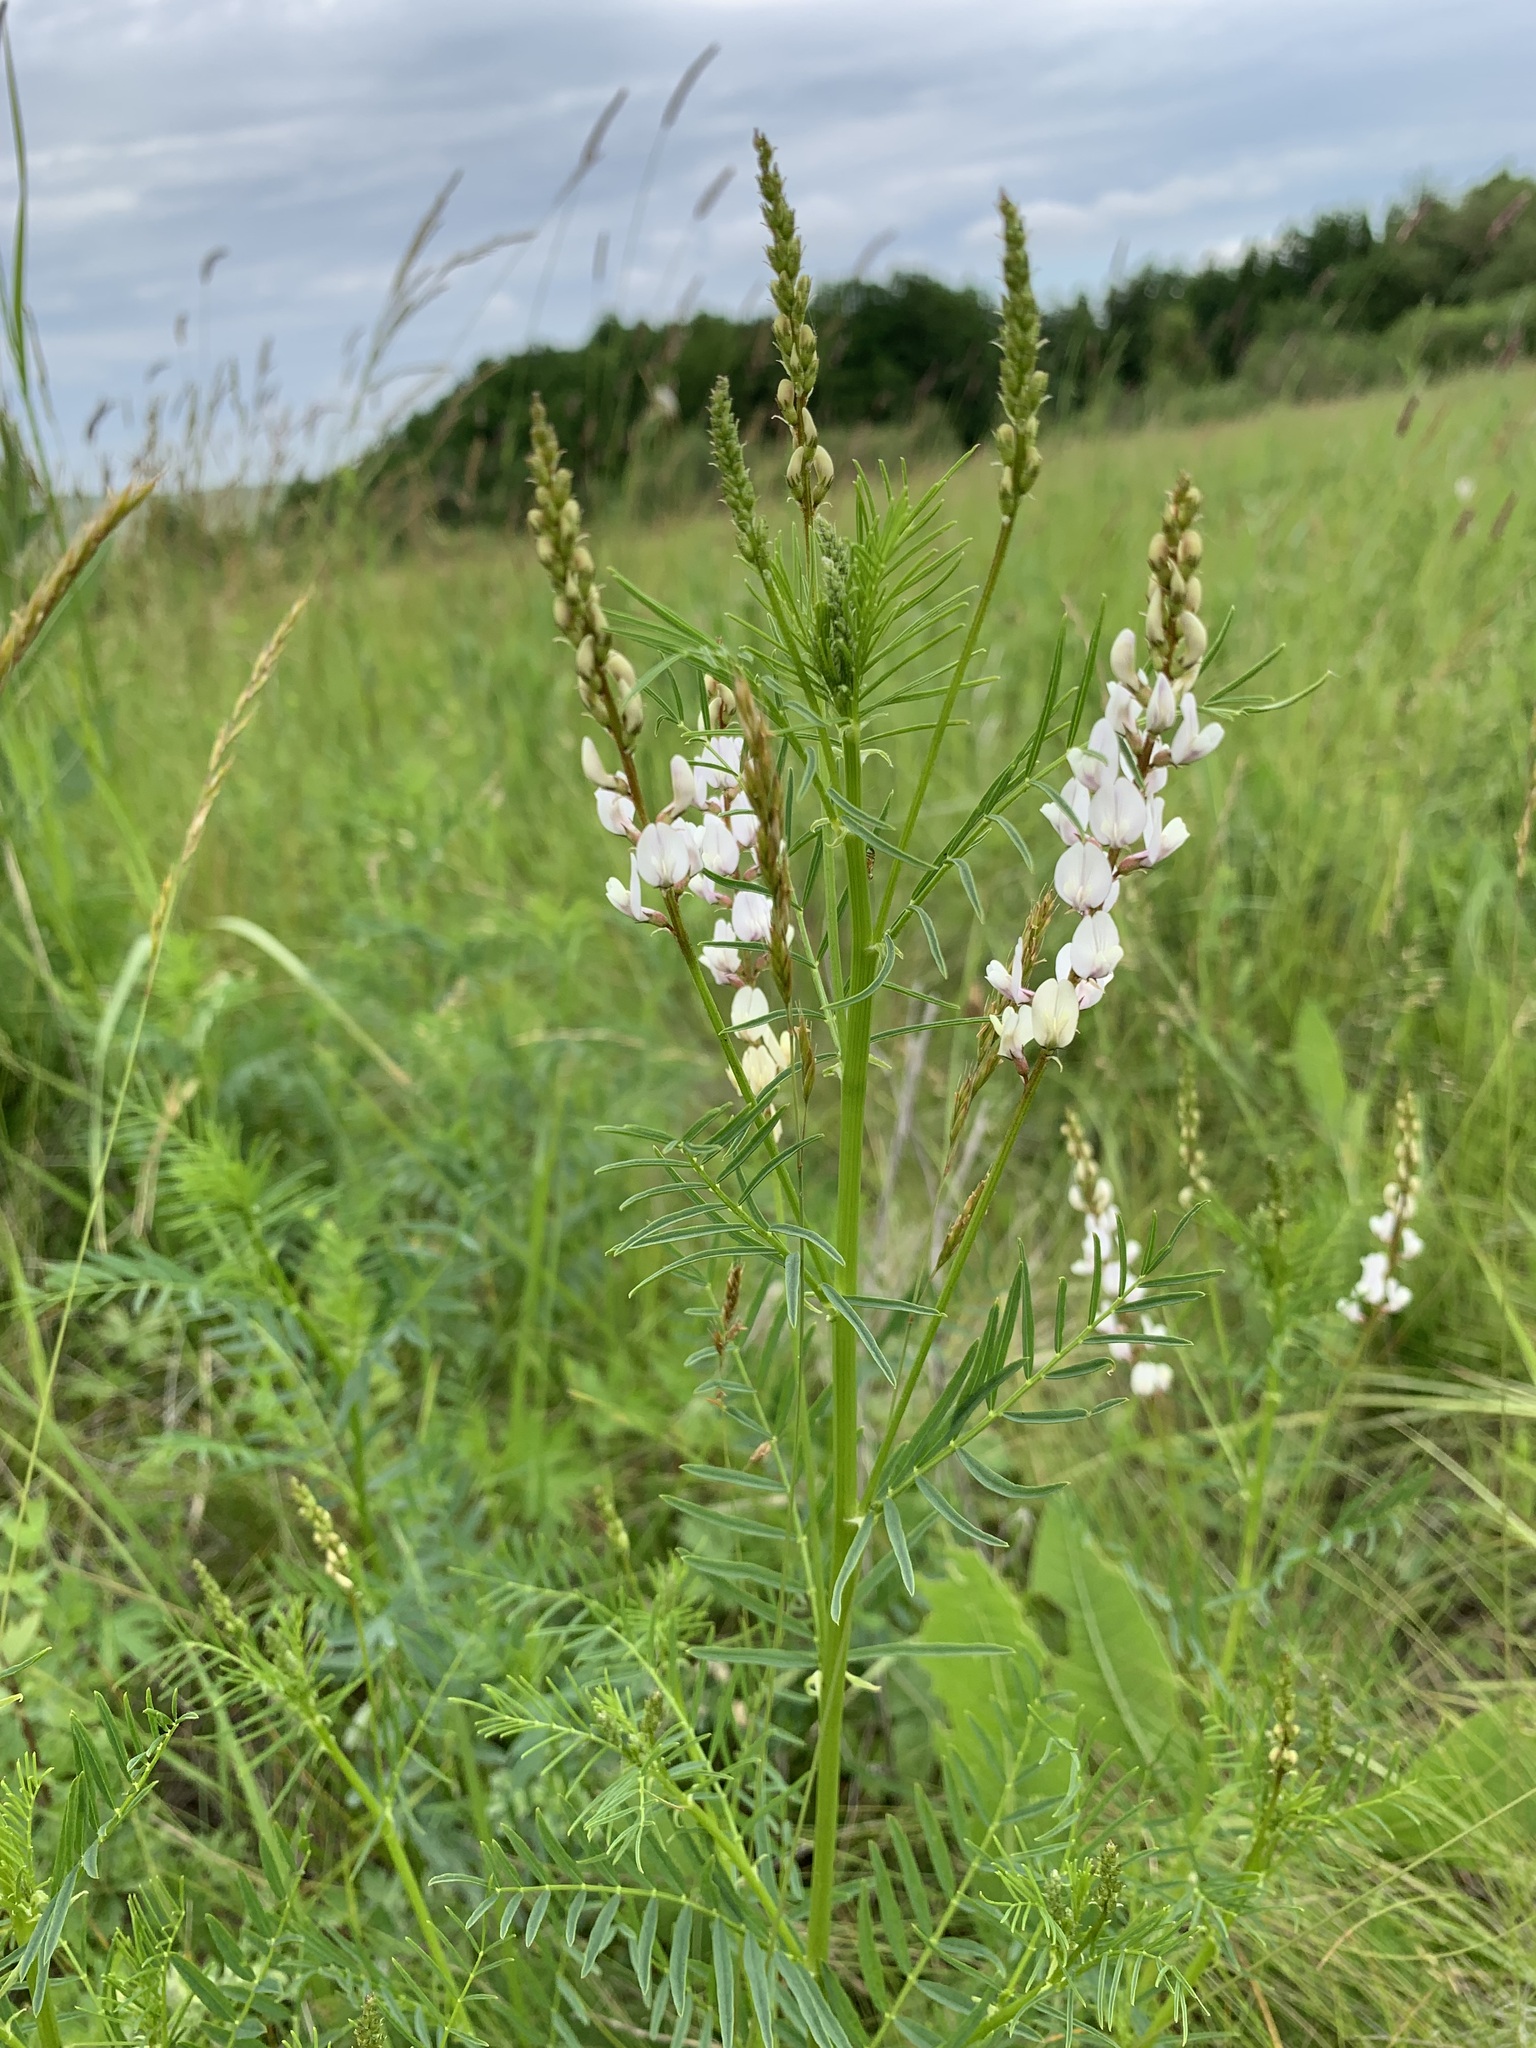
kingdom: Plantae
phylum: Tracheophyta
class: Magnoliopsida
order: Fabales
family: Fabaceae
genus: Astragalus
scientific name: Astragalus sulcatus
